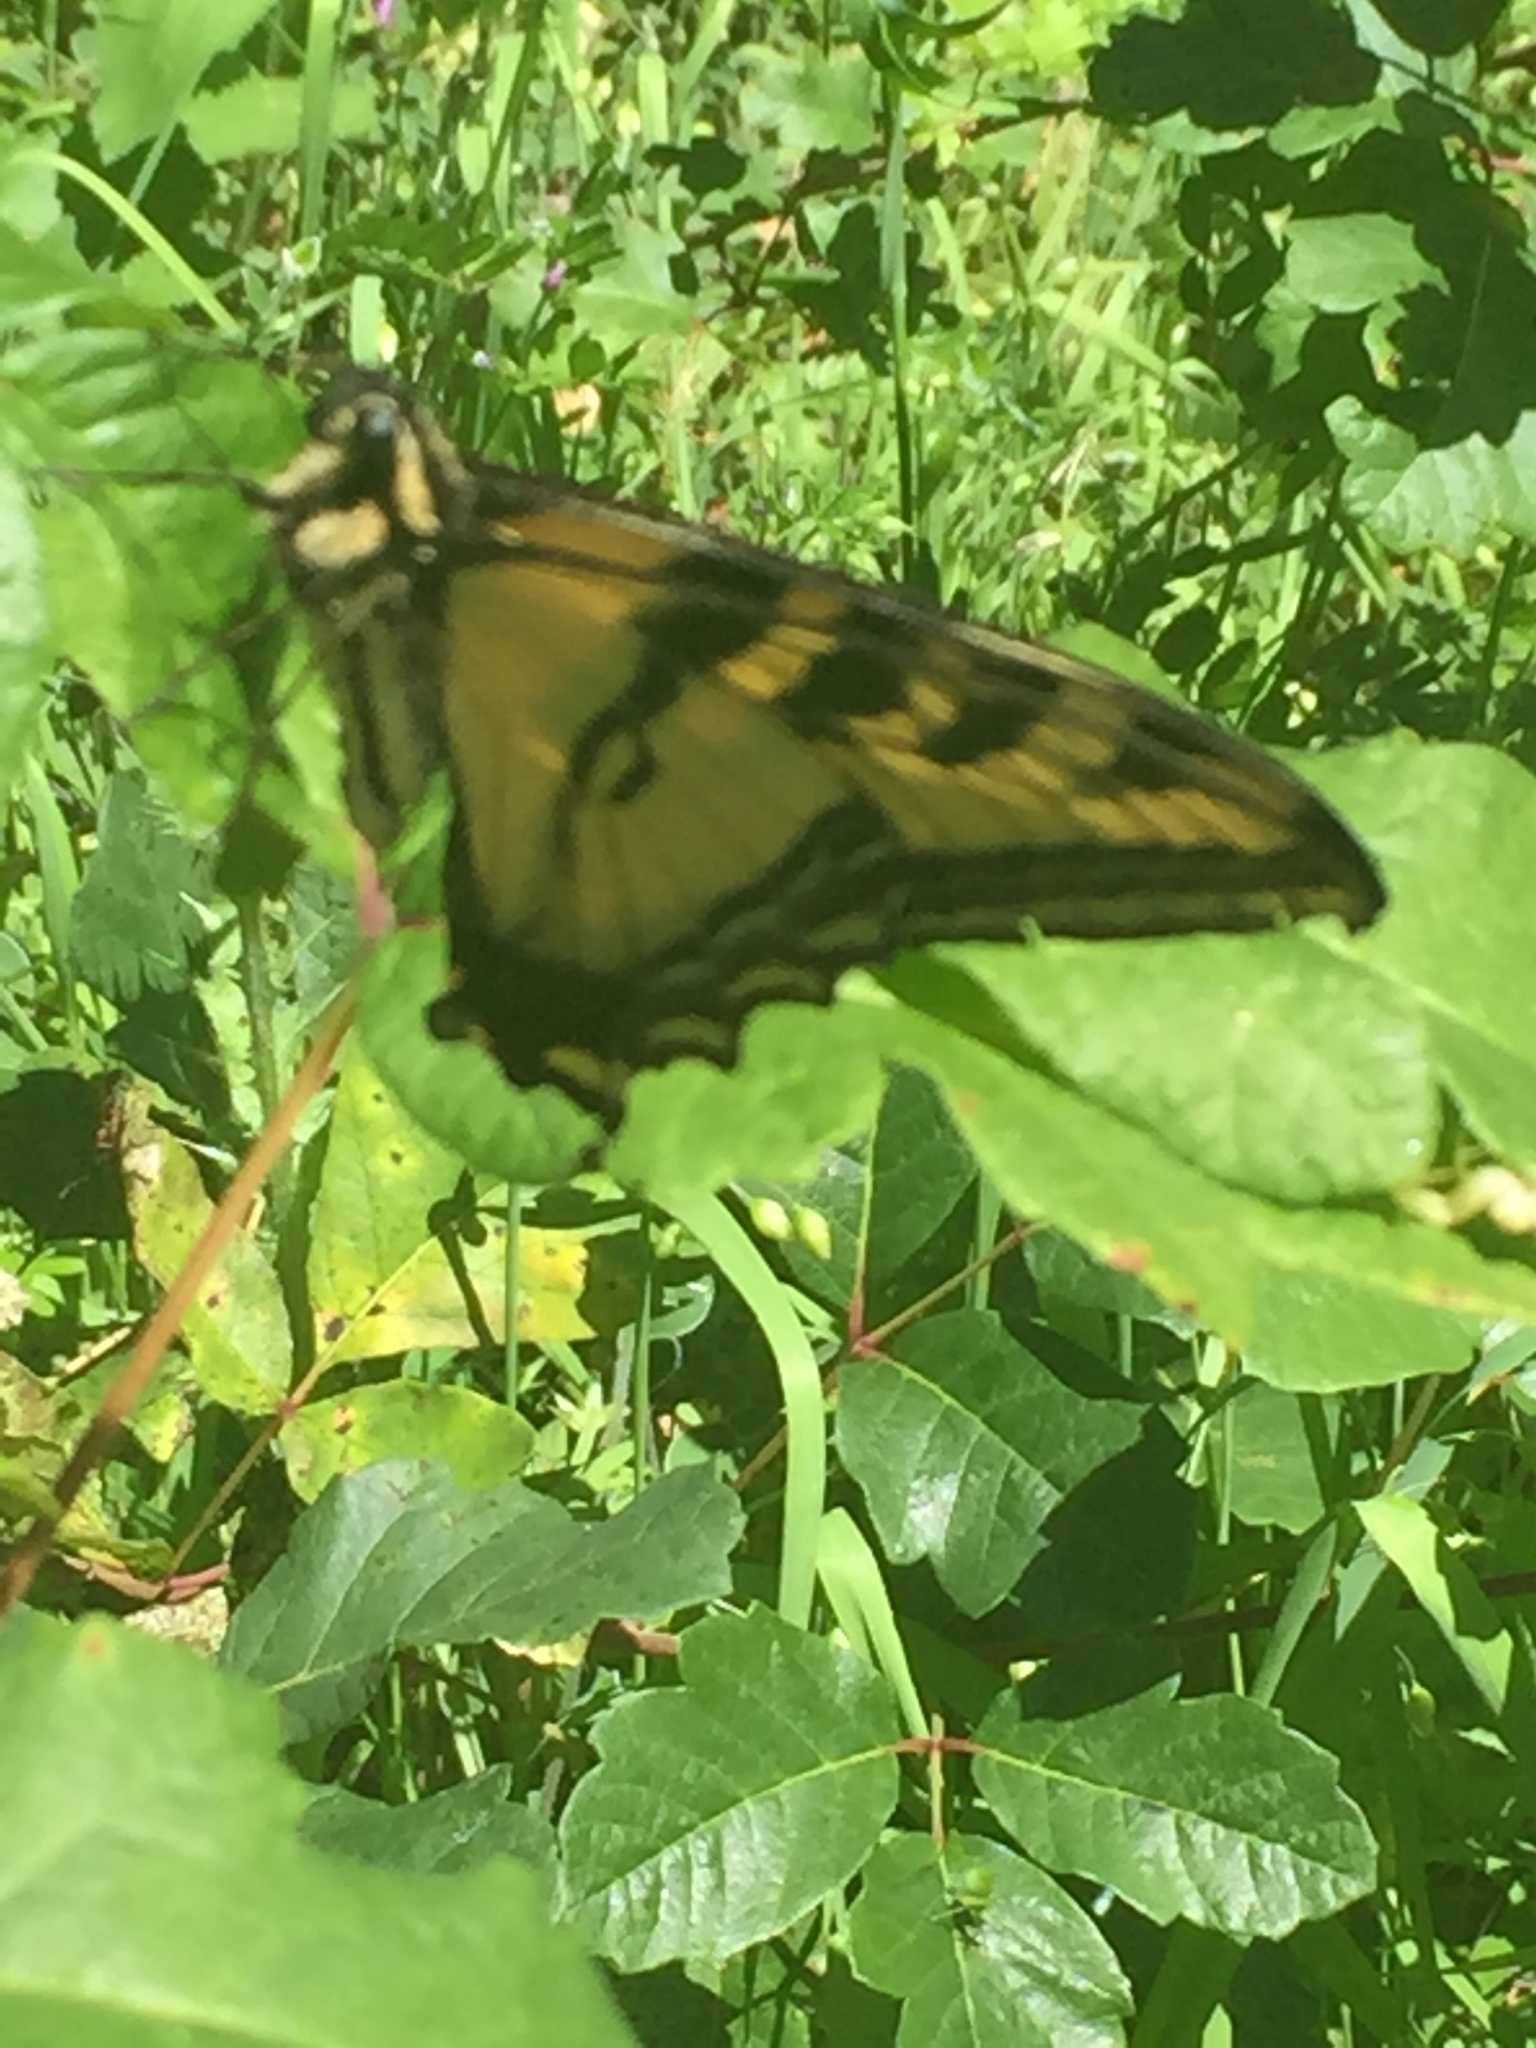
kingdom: Animalia
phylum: Arthropoda
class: Insecta
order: Lepidoptera
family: Papilionidae
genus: Papilio
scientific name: Papilio rutulus
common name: Western tiger swallowtail
